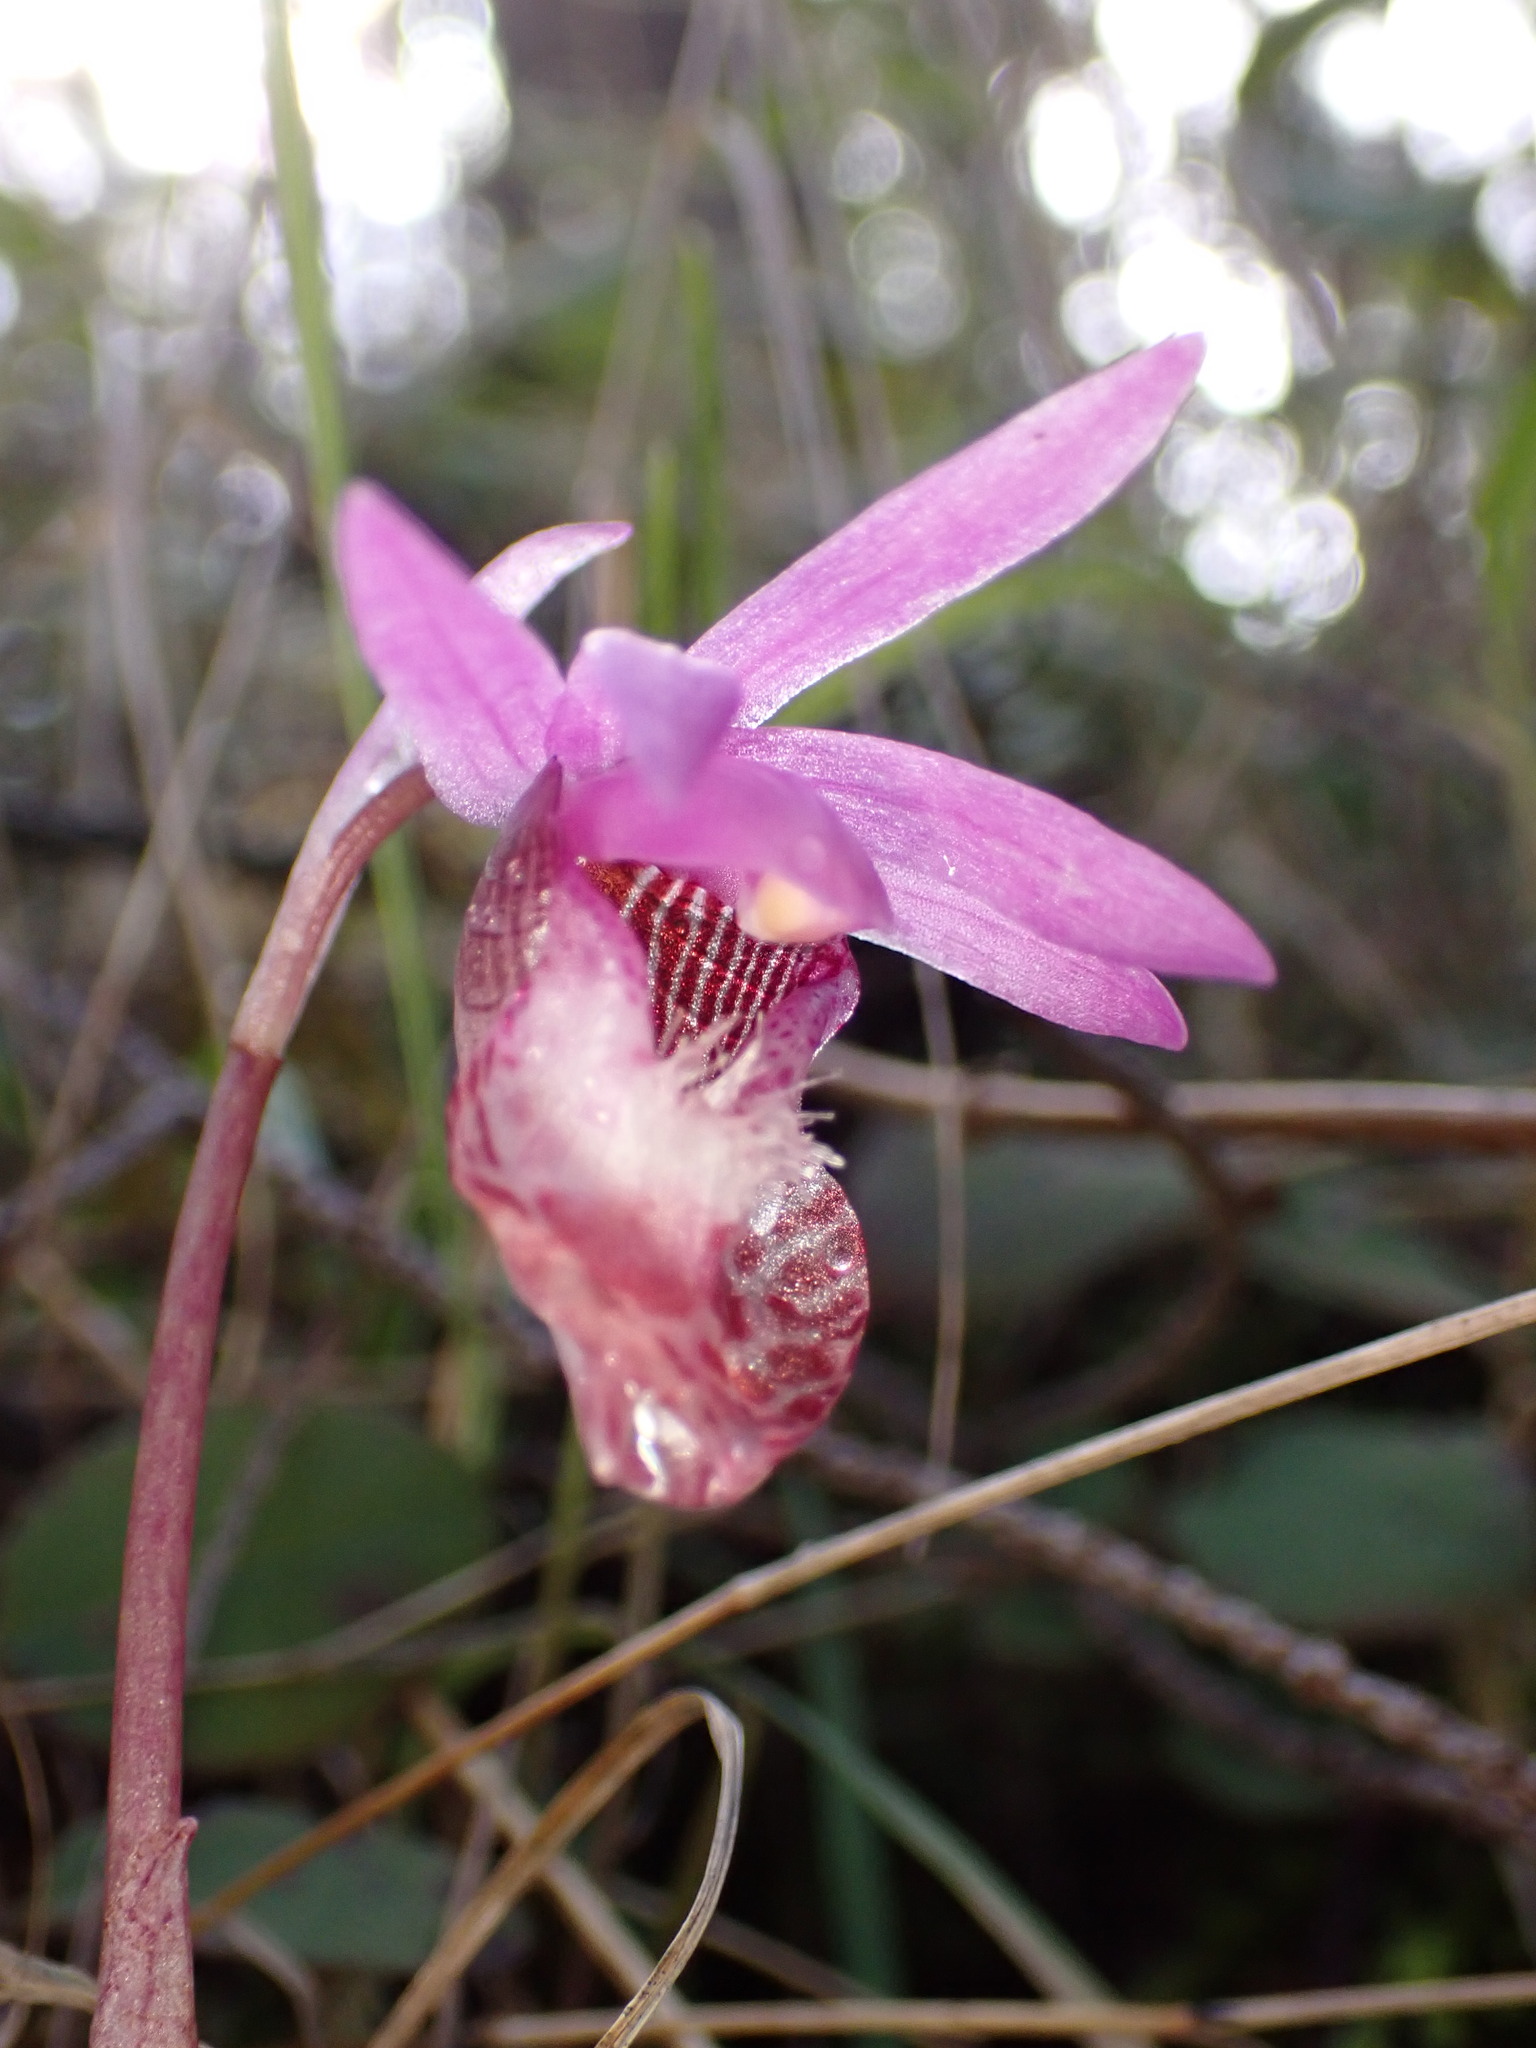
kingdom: Plantae
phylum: Tracheophyta
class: Liliopsida
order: Asparagales
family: Orchidaceae
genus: Calypso
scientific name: Calypso bulbosa
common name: Calypso
